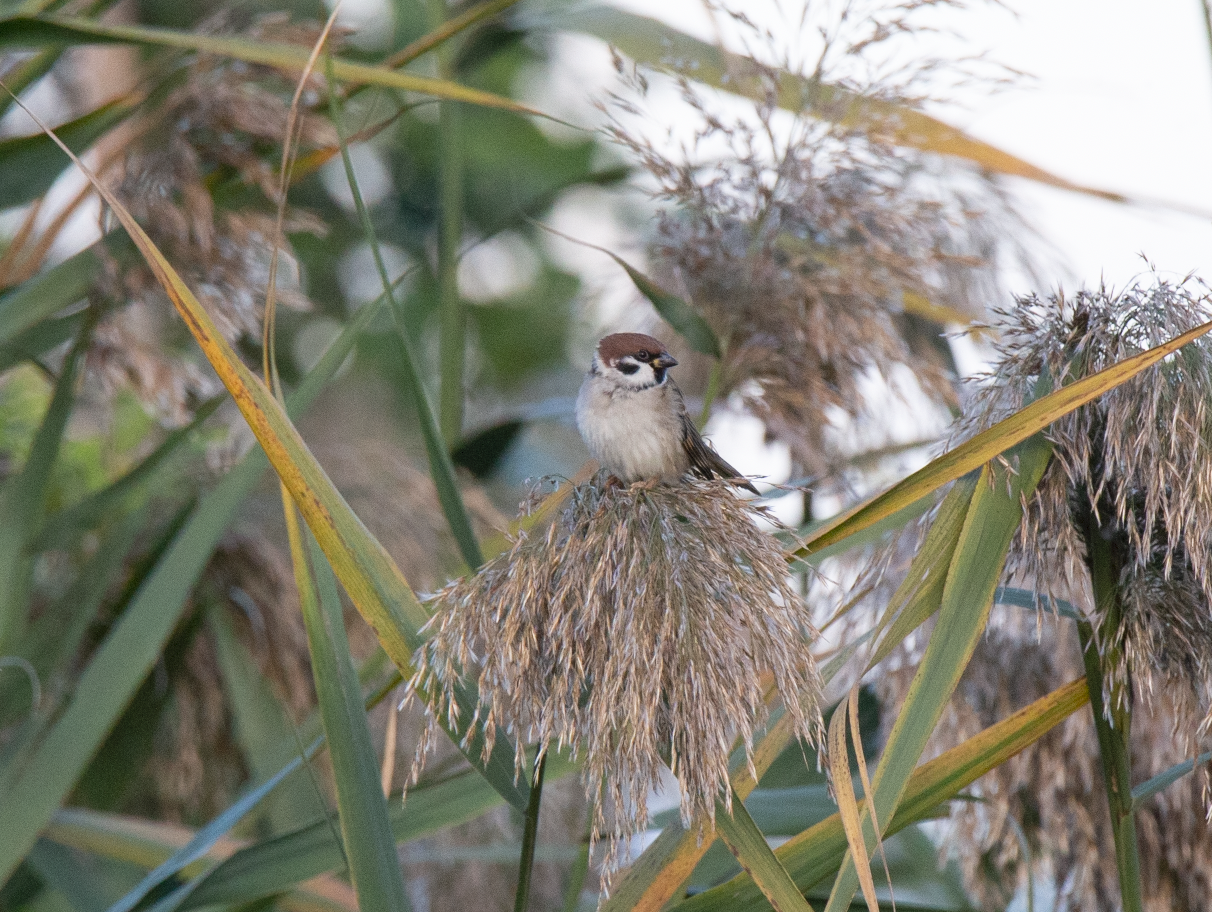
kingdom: Animalia
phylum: Chordata
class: Aves
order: Passeriformes
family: Passeridae
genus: Passer
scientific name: Passer montanus
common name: Eurasian tree sparrow
